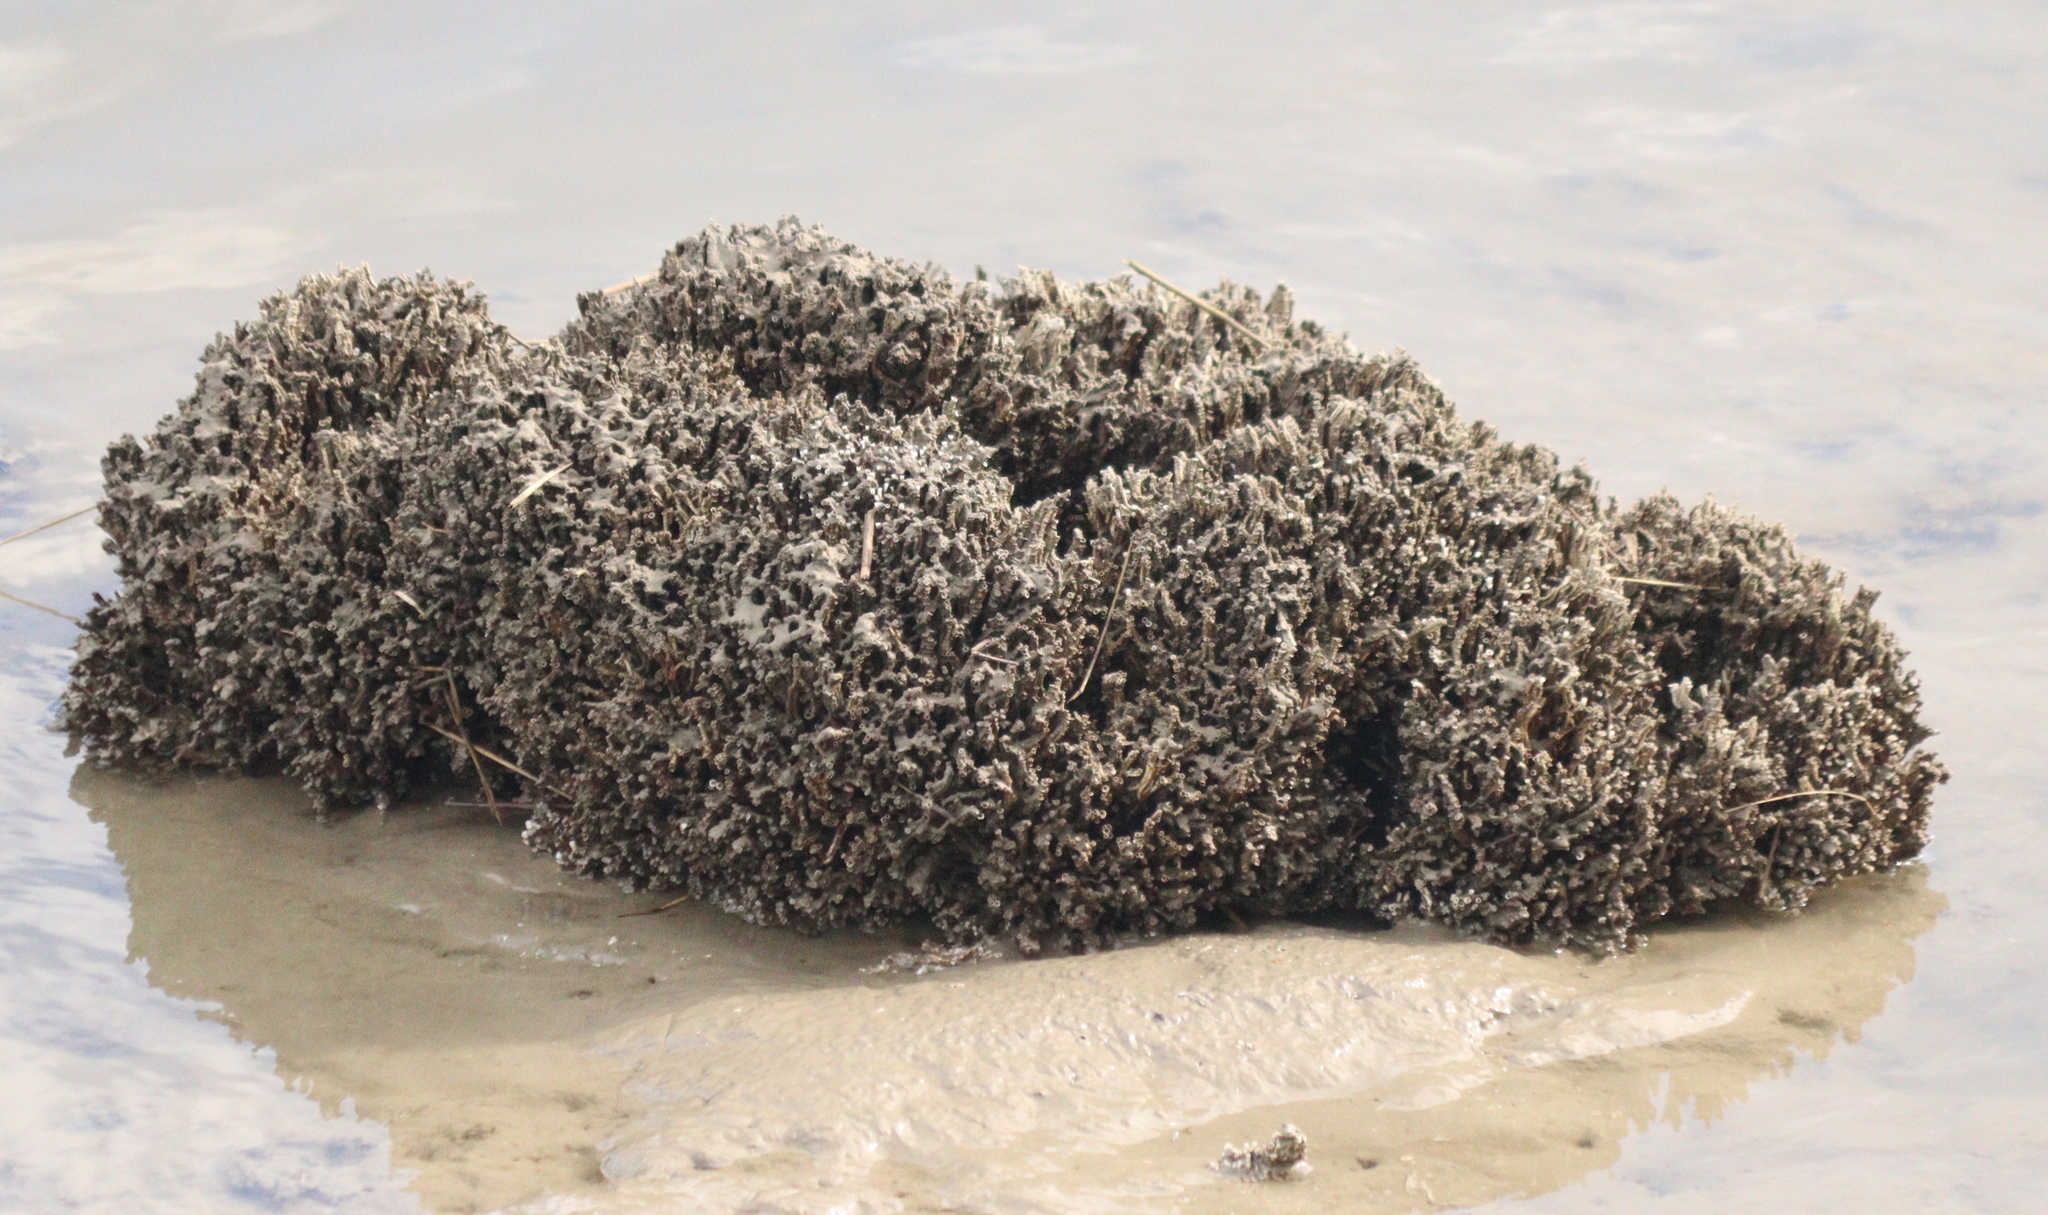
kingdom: Animalia
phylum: Annelida
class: Polychaeta
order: Sabellida
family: Serpulidae
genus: Ficopomatus
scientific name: Ficopomatus enigmaticus
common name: Australian tubeworm
